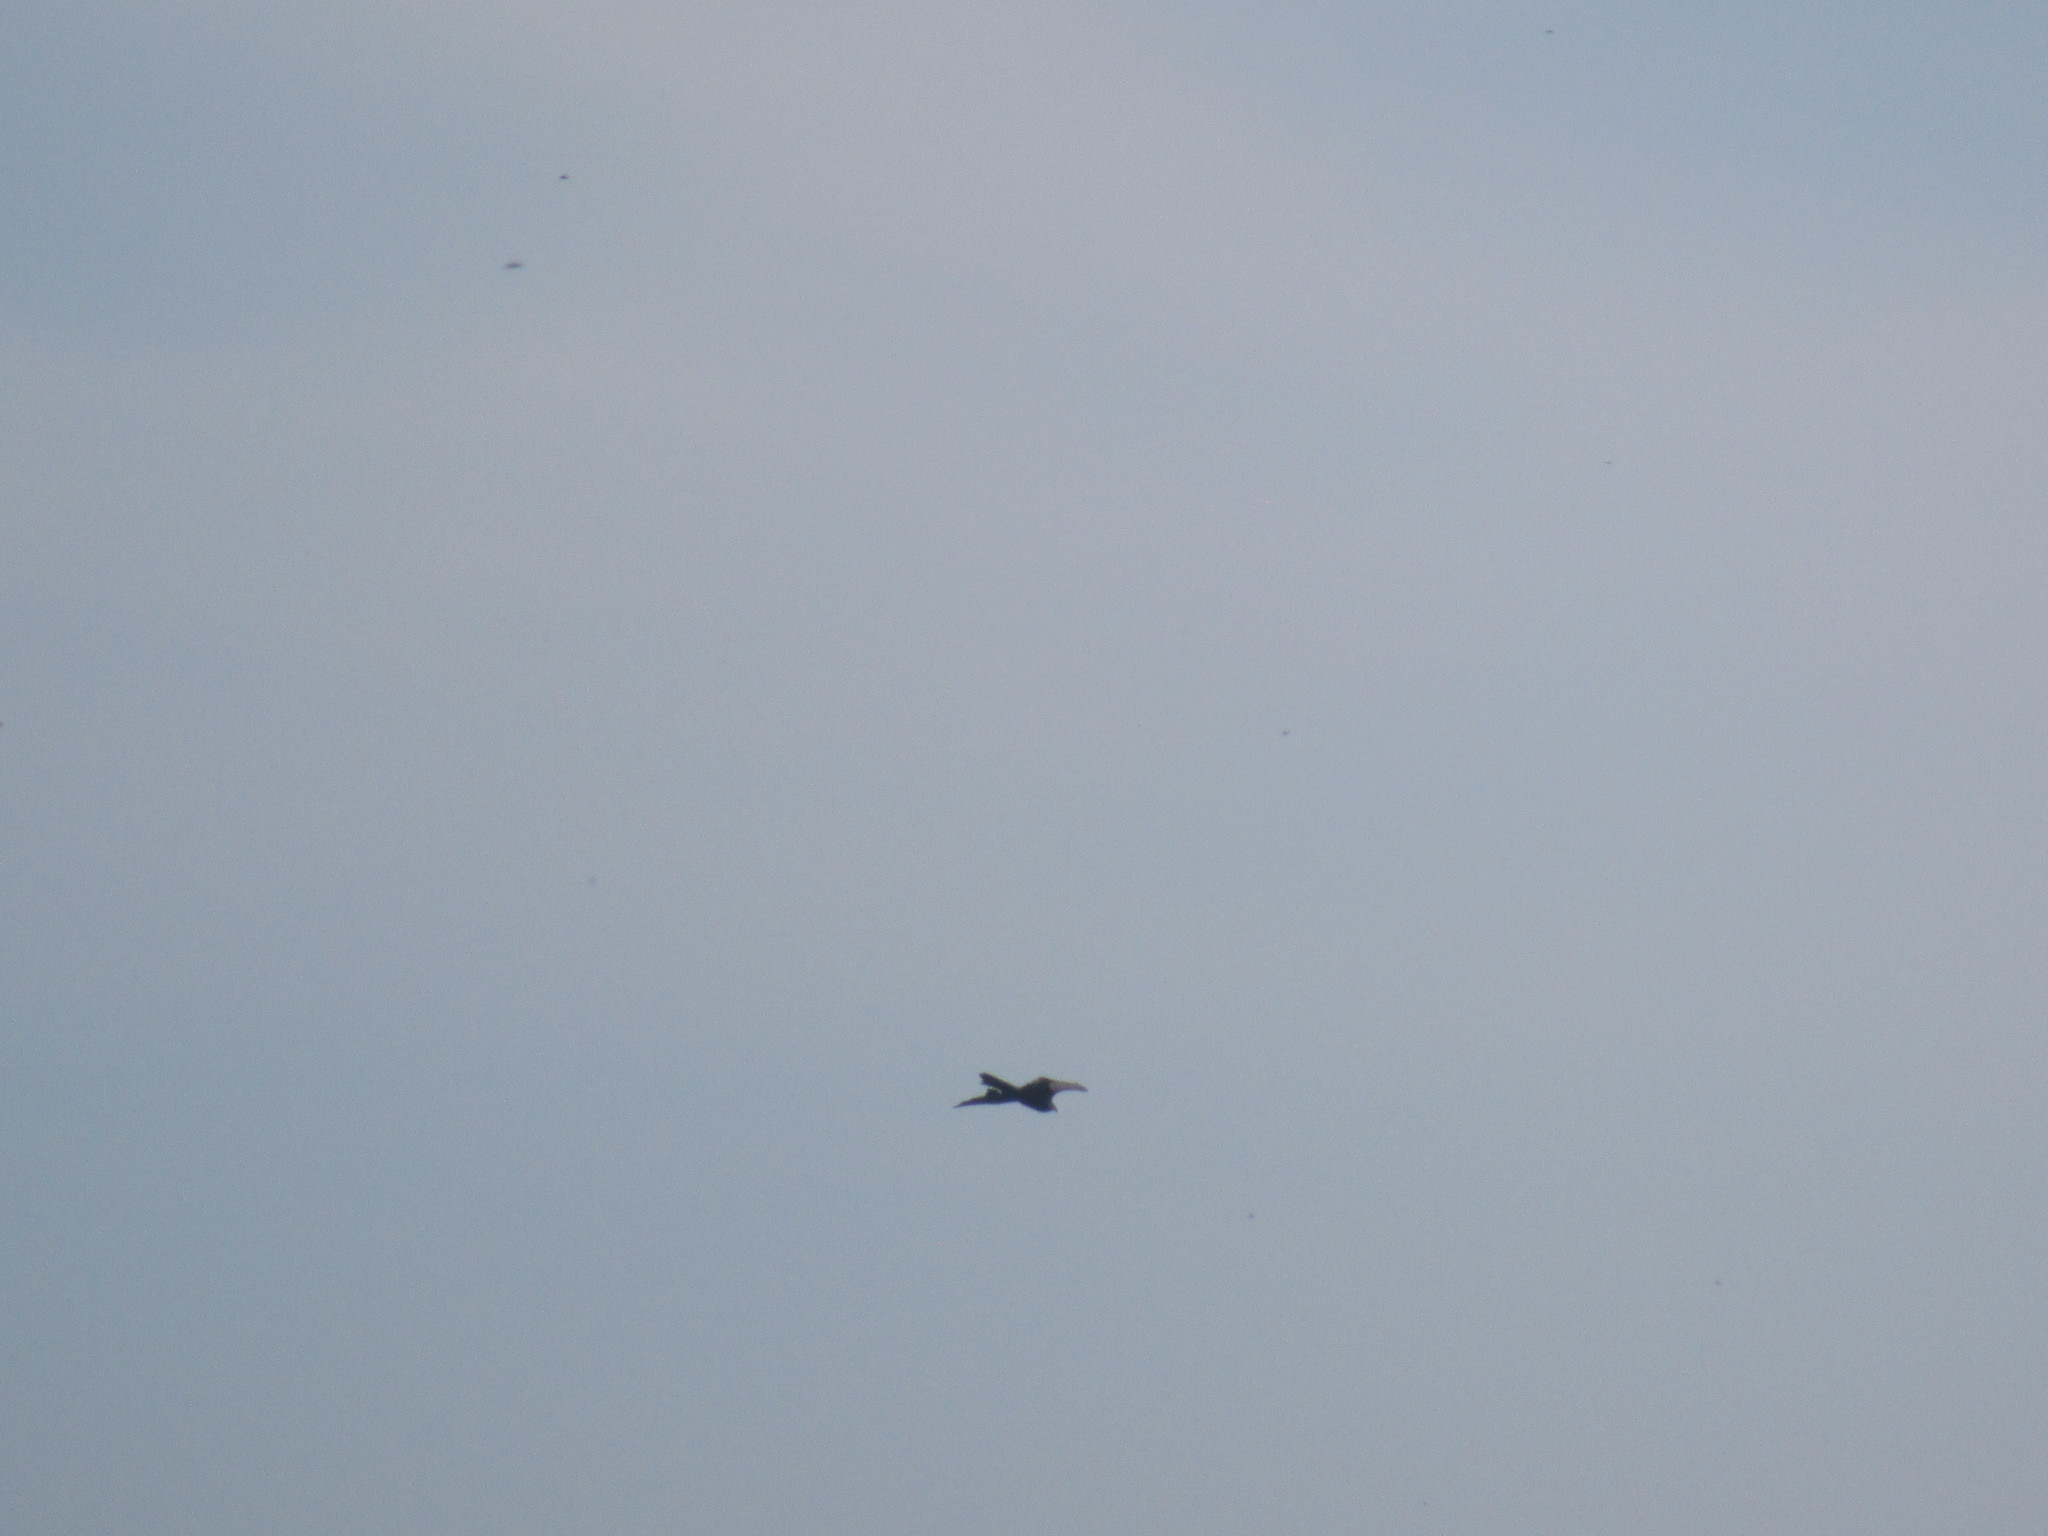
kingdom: Animalia
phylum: Chordata
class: Aves
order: Accipitriformes
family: Cathartidae
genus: Cathartes
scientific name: Cathartes aura
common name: Turkey vulture
